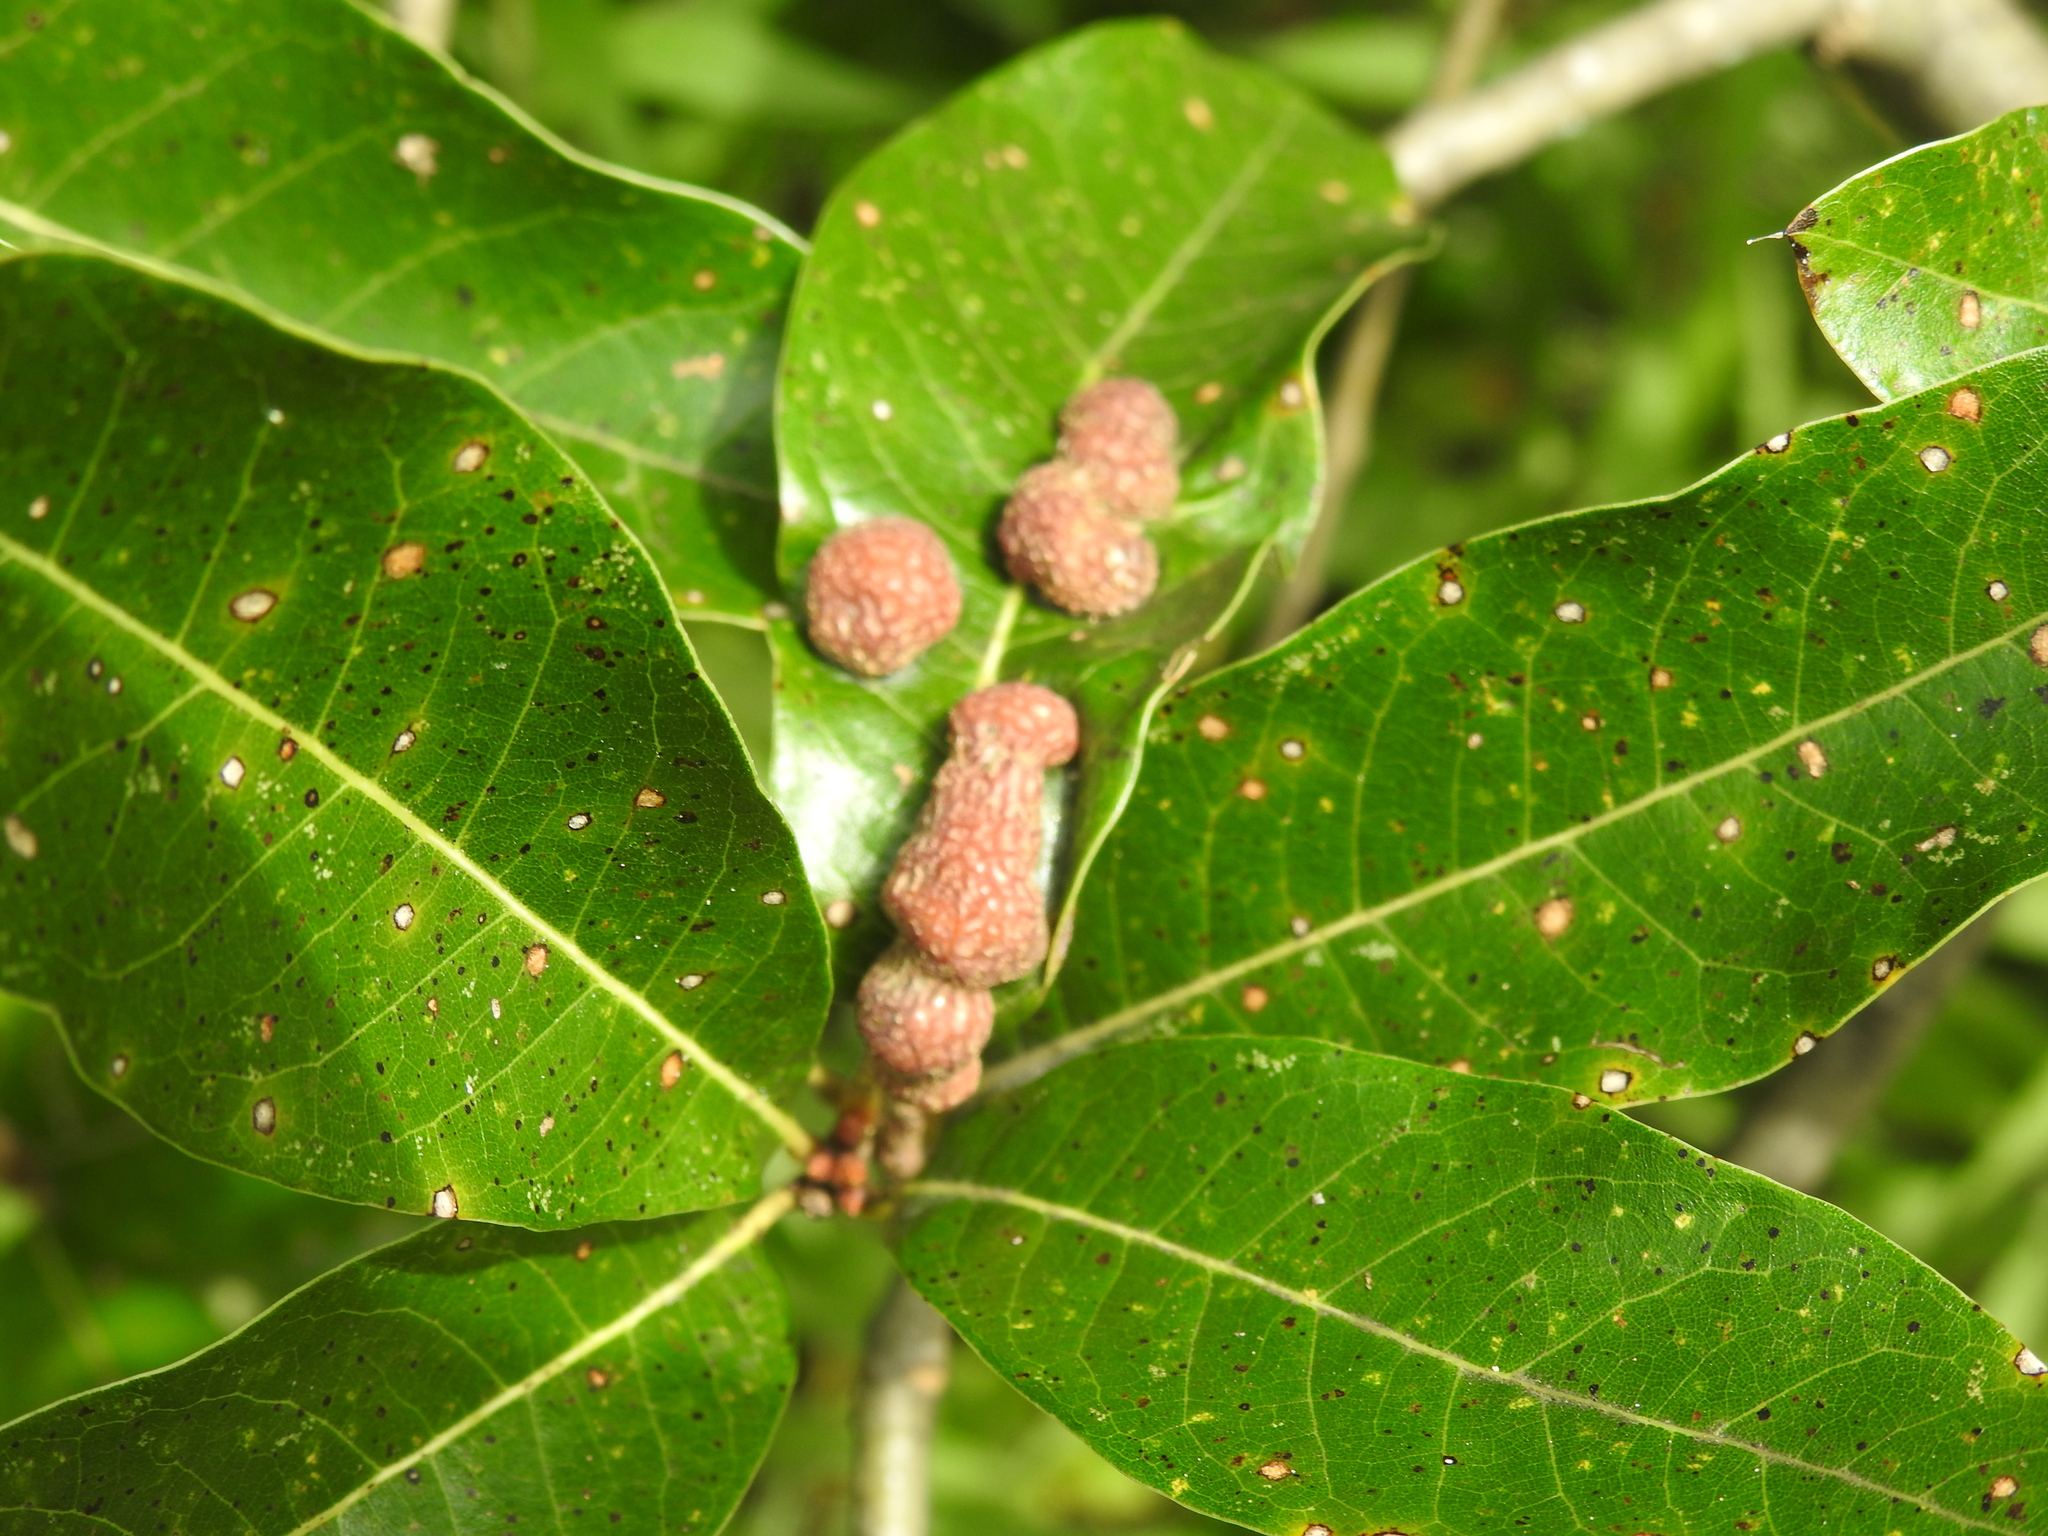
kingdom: Animalia
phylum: Arthropoda
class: Insecta
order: Diptera
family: Cecidomyiidae
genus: Polystepha
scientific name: Polystepha pilulae
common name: Oak leaf gall midge
